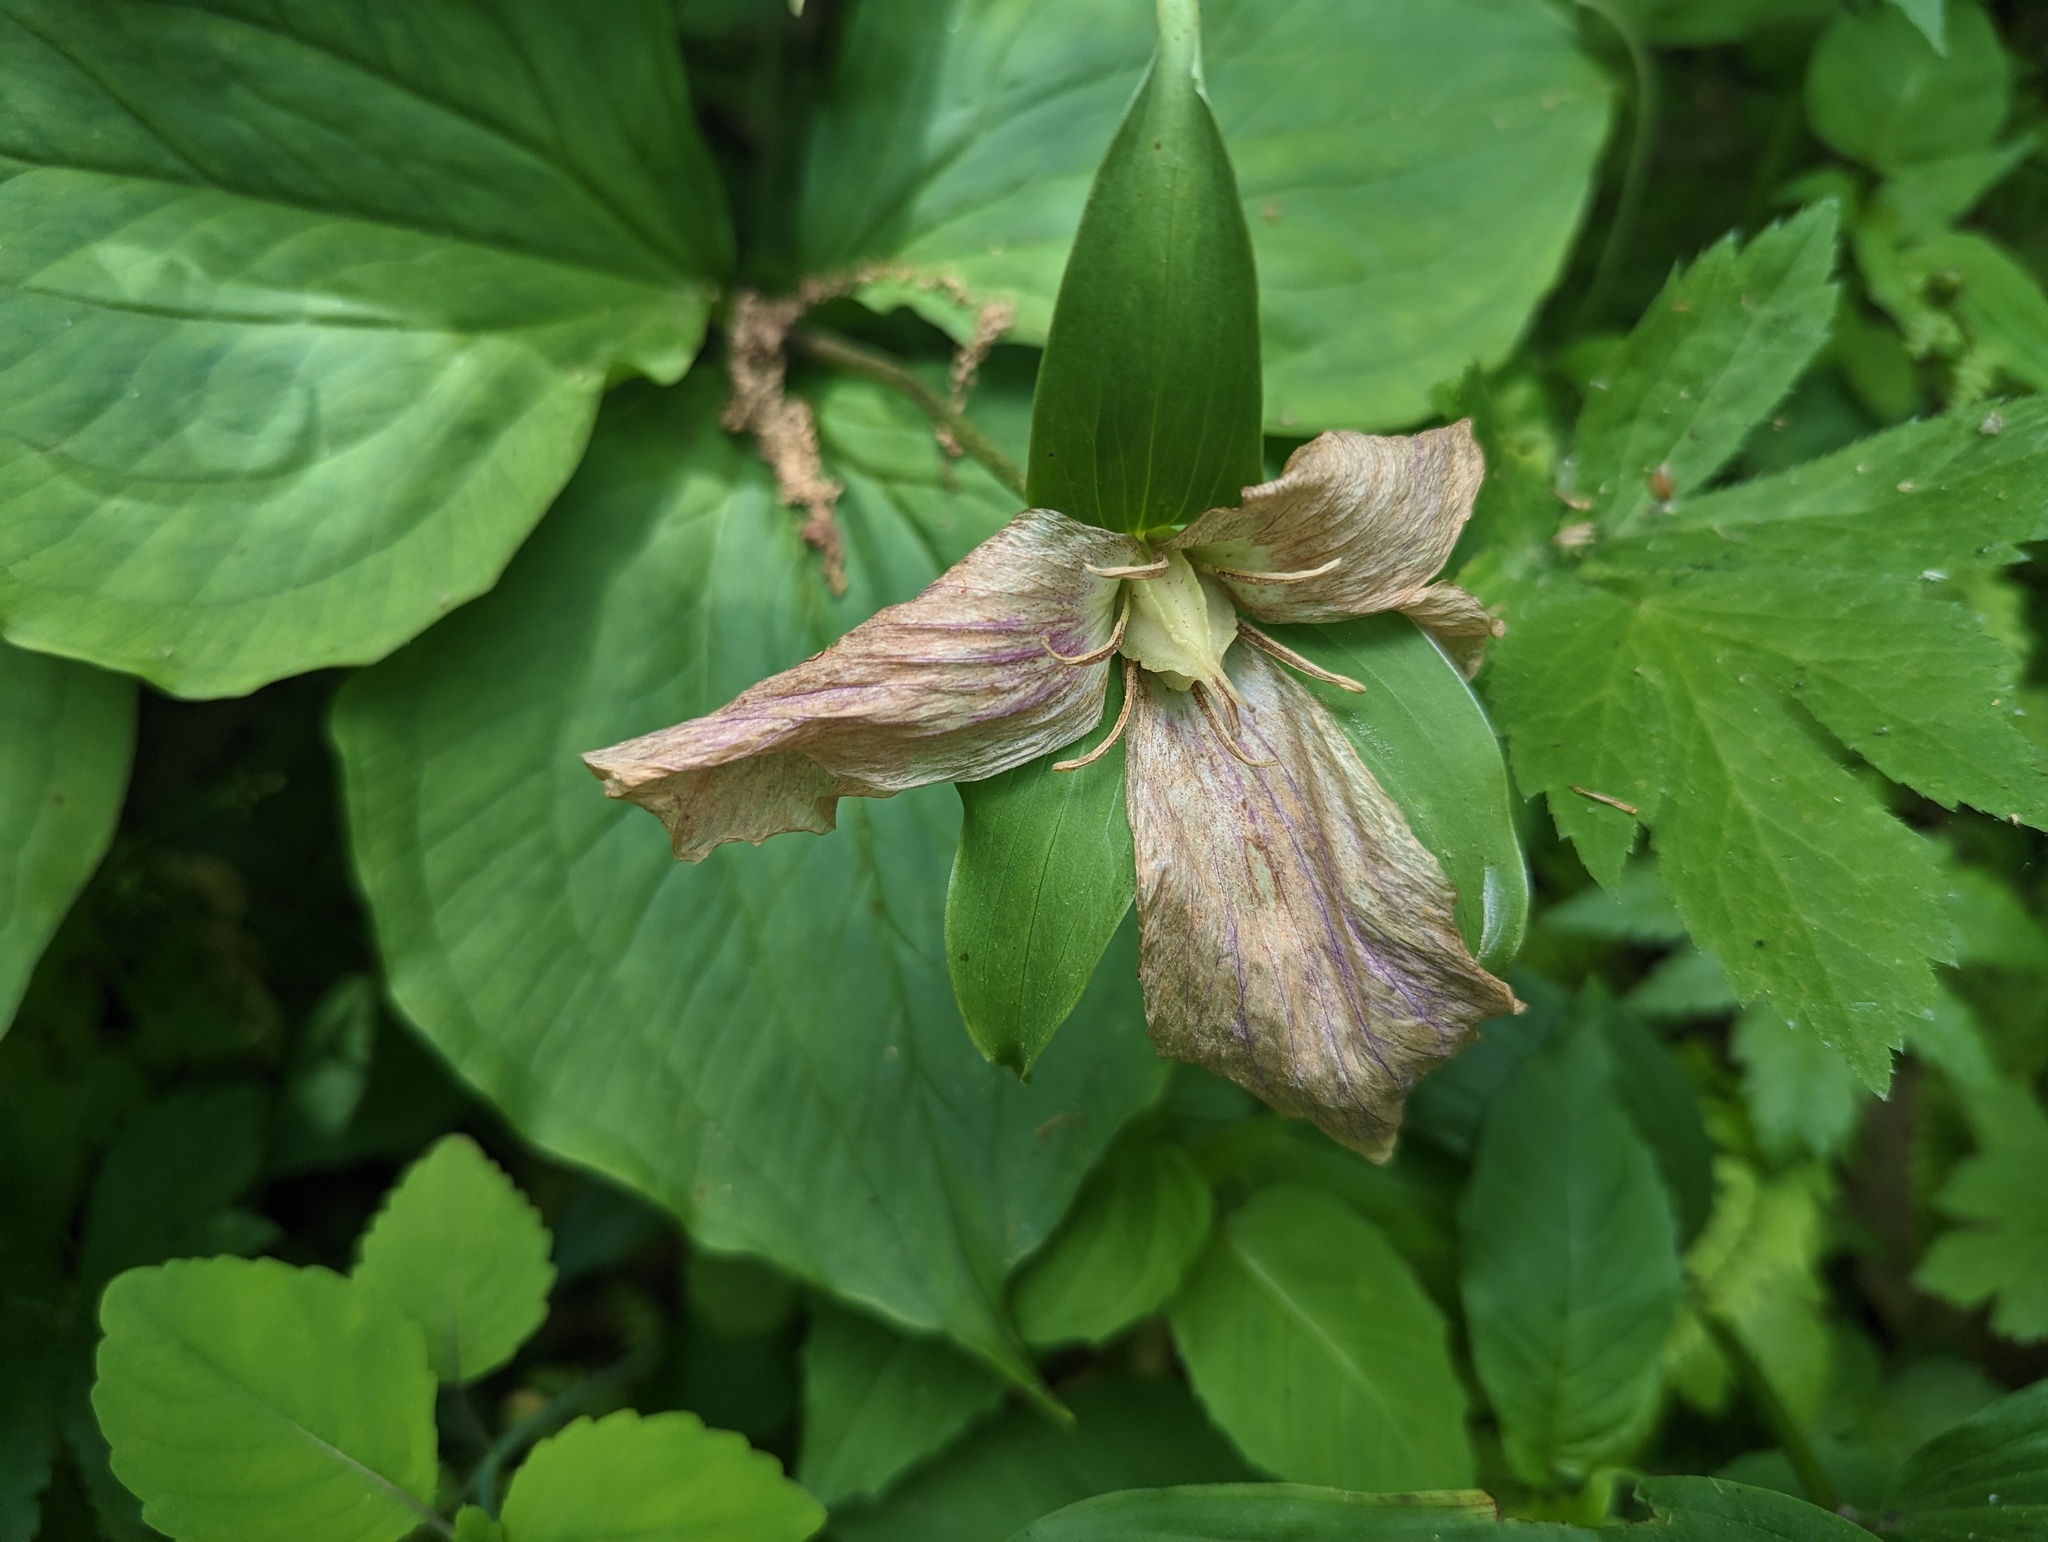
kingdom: Plantae
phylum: Tracheophyta
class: Liliopsida
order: Liliales
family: Melanthiaceae
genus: Trillium
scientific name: Trillium grandiflorum
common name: Great white trillium
